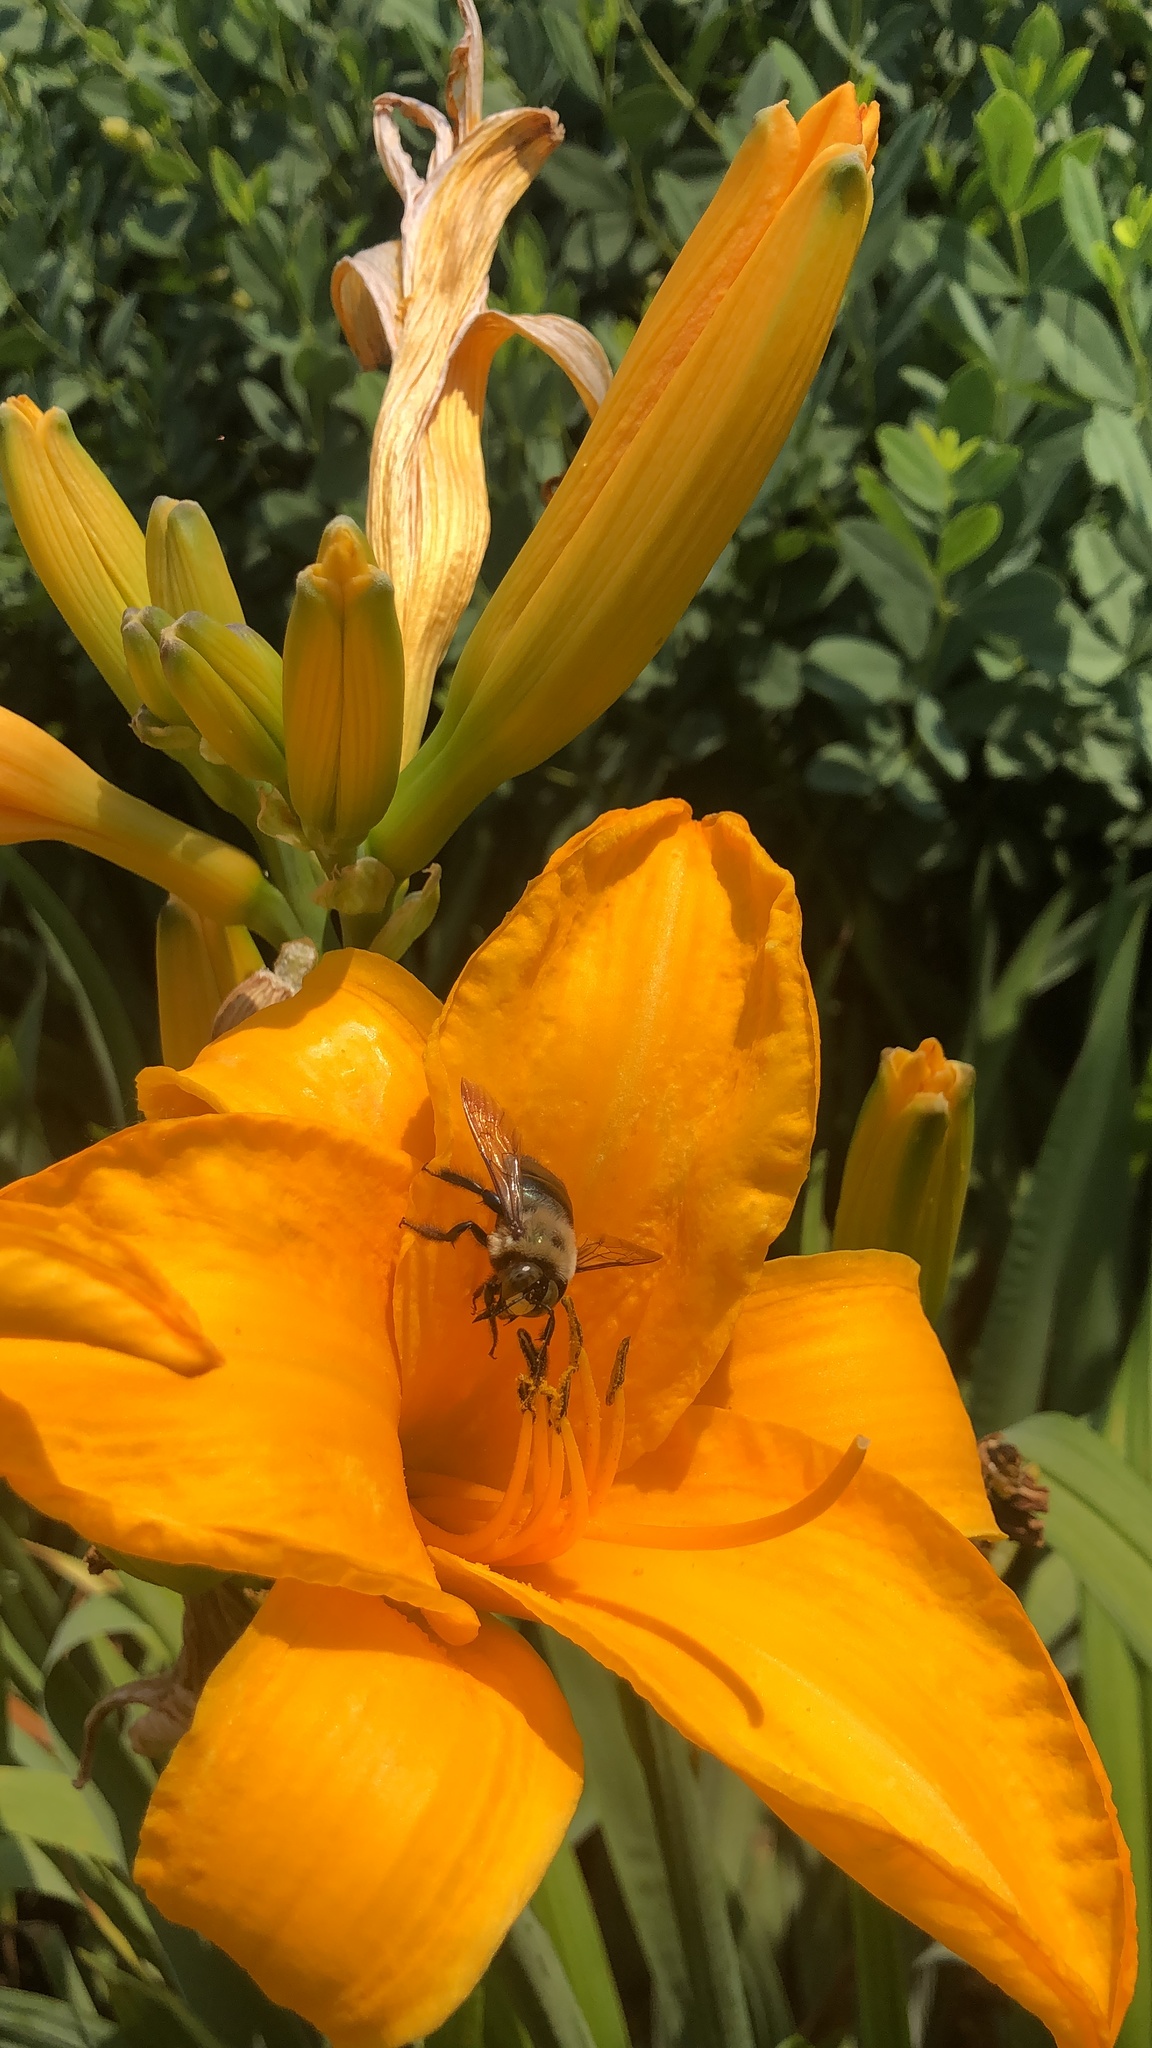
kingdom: Animalia
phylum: Arthropoda
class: Insecta
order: Hymenoptera
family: Apidae
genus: Xylocopa
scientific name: Xylocopa virginica
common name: Carpenter bee
